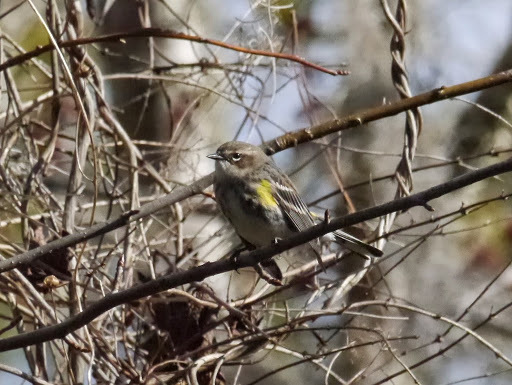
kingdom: Animalia
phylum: Chordata
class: Aves
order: Passeriformes
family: Parulidae
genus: Setophaga
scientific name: Setophaga coronata
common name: Myrtle warbler
